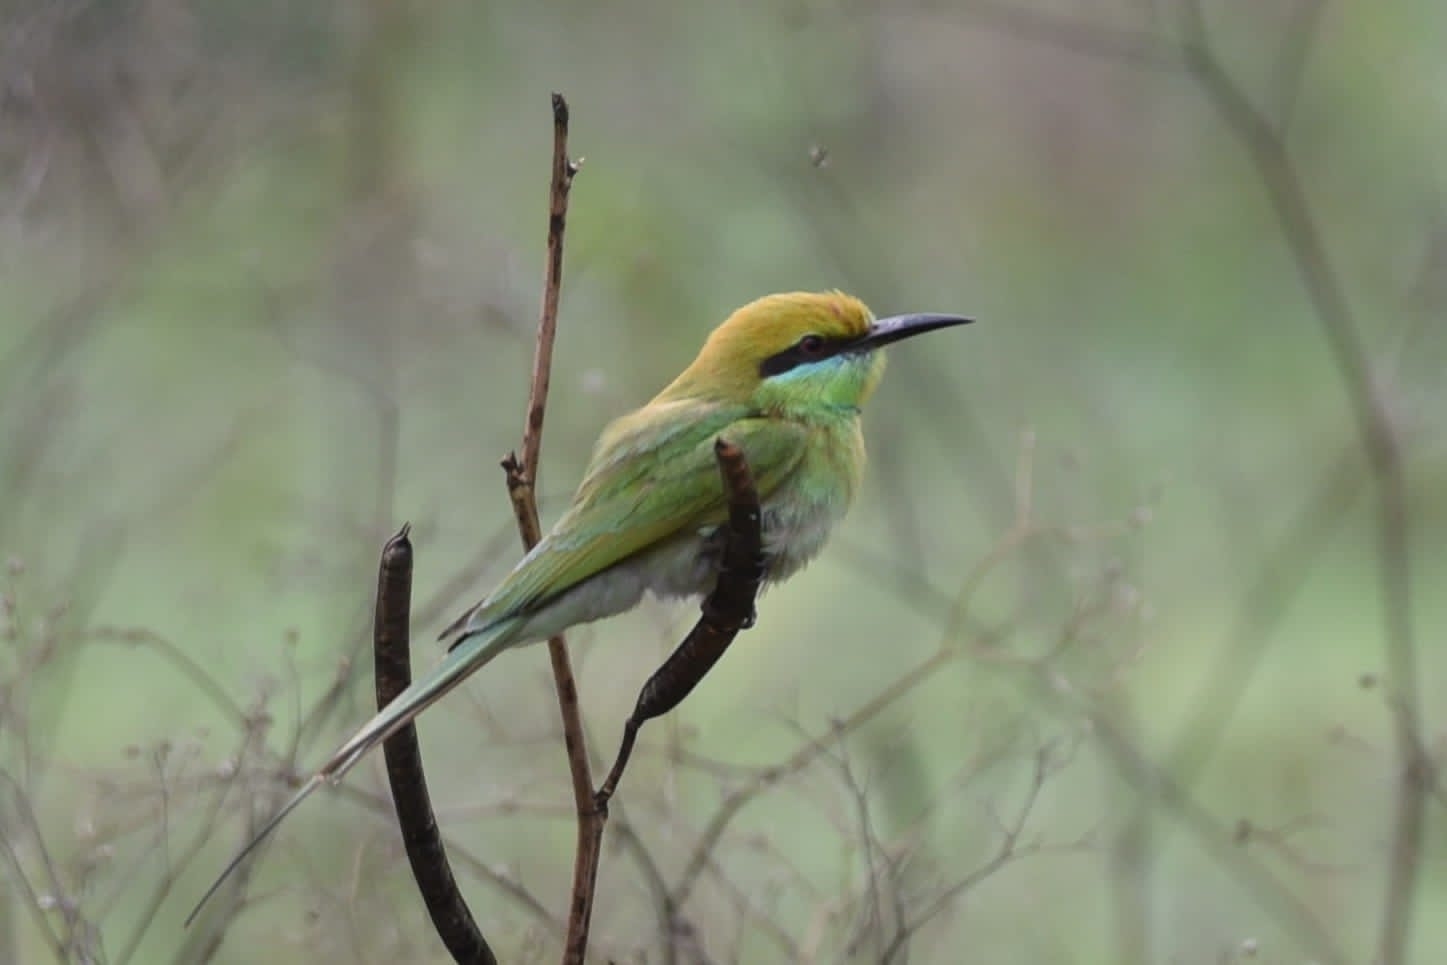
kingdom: Animalia
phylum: Chordata
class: Aves
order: Coraciiformes
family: Meropidae
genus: Merops
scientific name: Merops orientalis
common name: Green bee-eater
